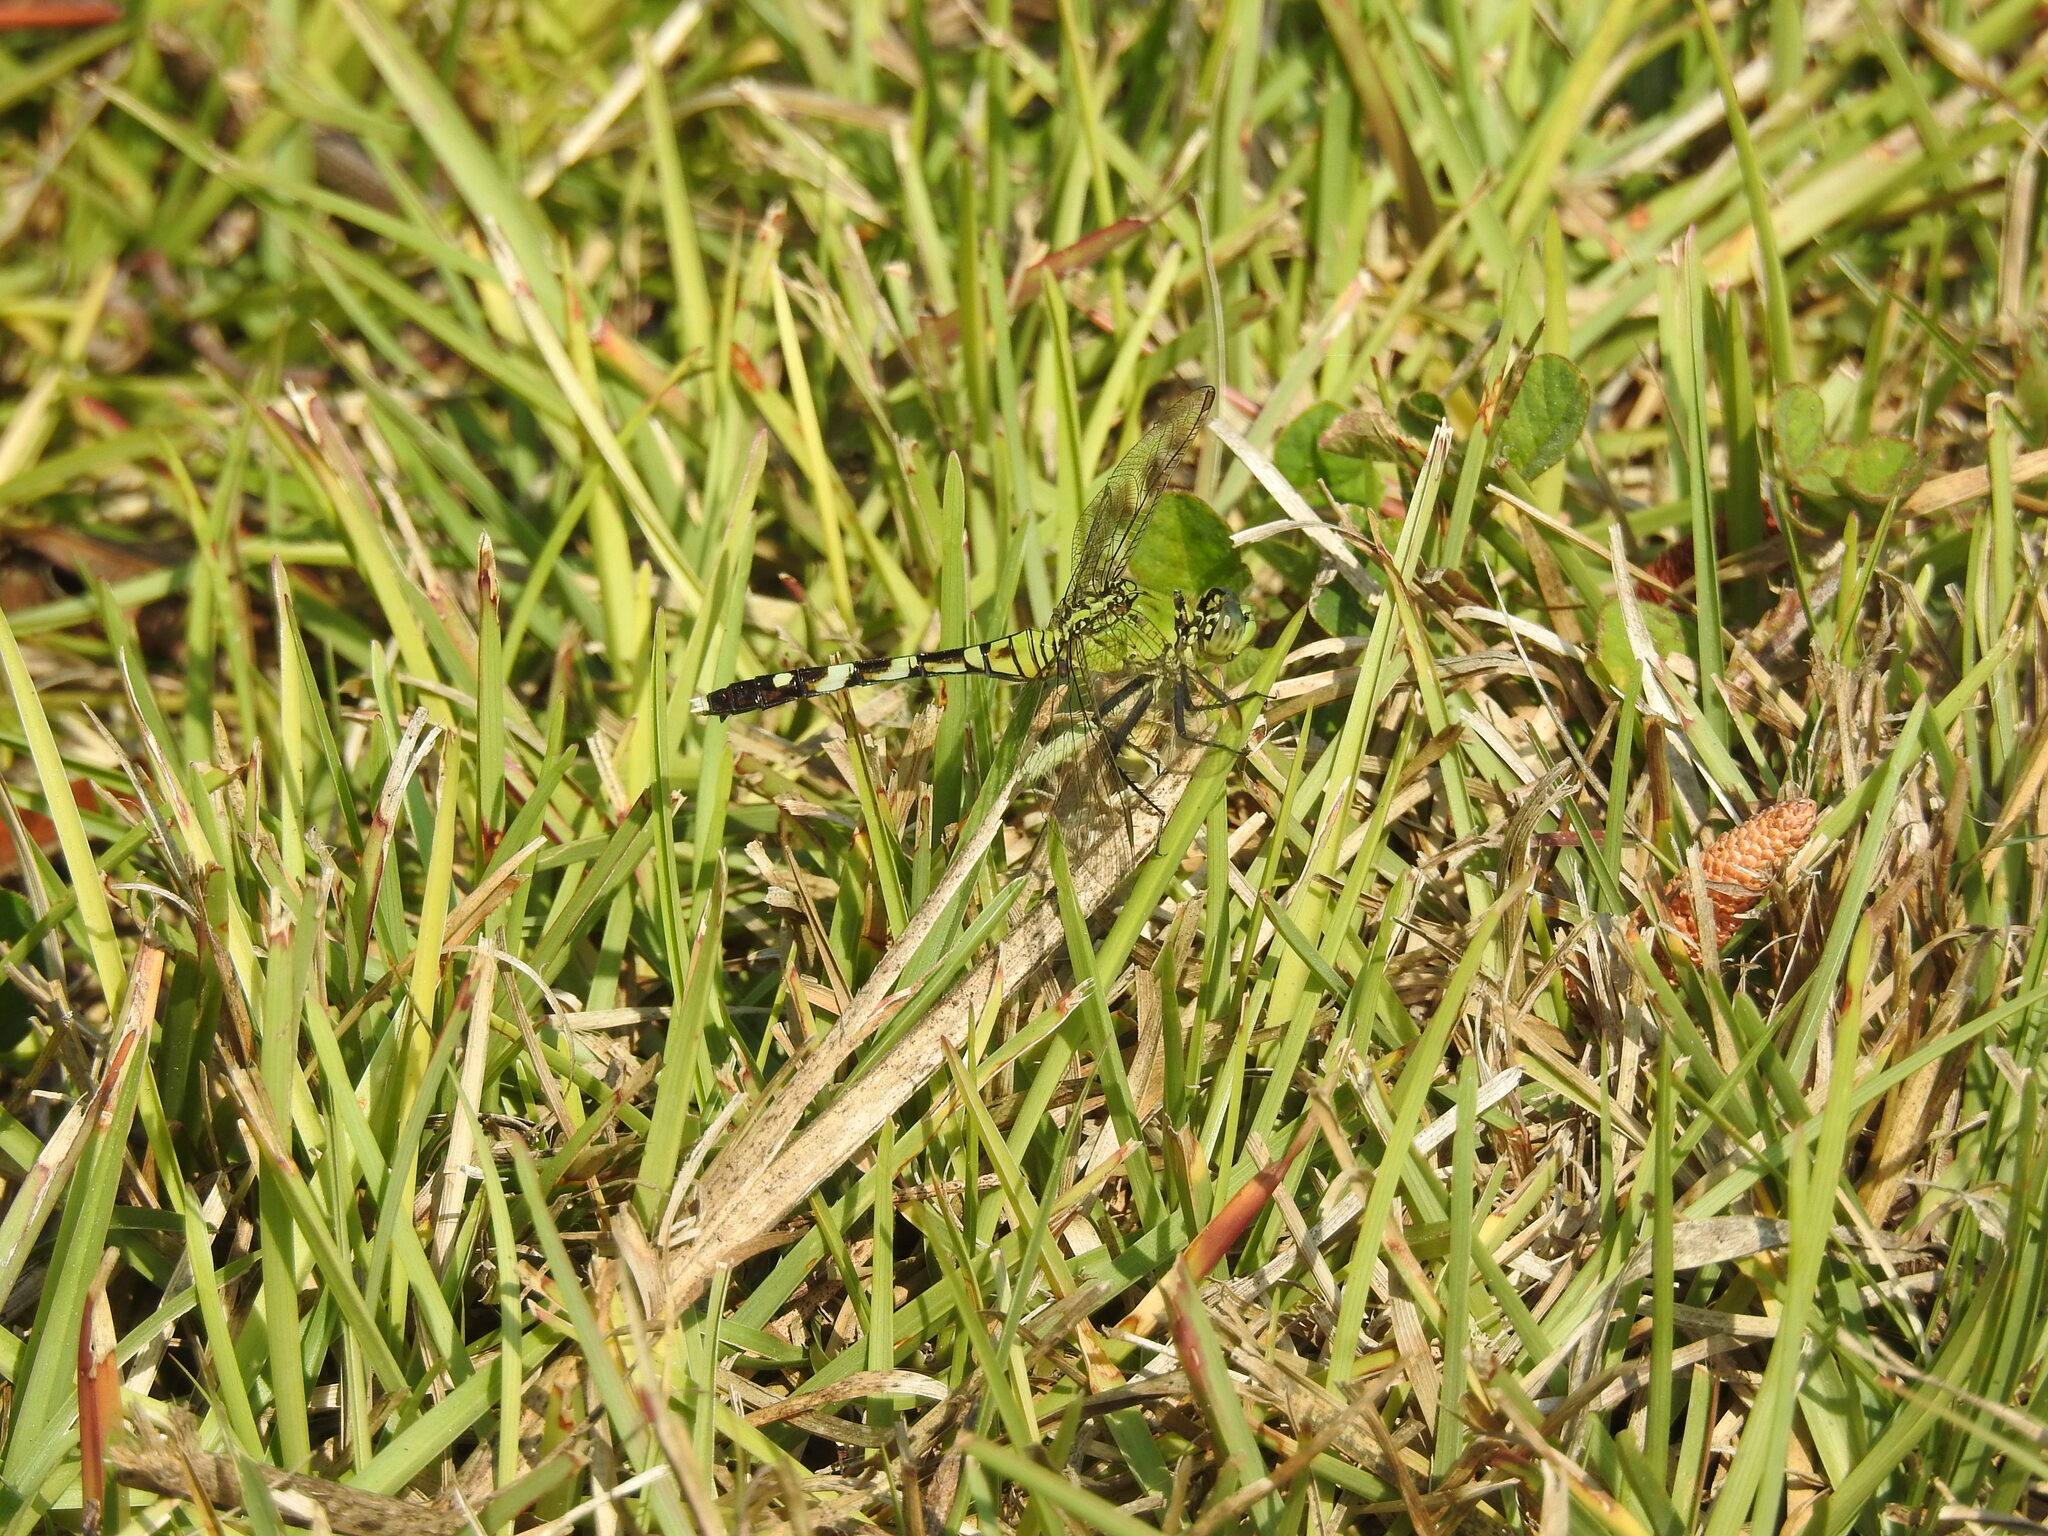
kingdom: Animalia
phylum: Arthropoda
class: Insecta
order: Odonata
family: Libellulidae
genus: Erythemis
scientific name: Erythemis simplicicollis
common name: Eastern pondhawk
